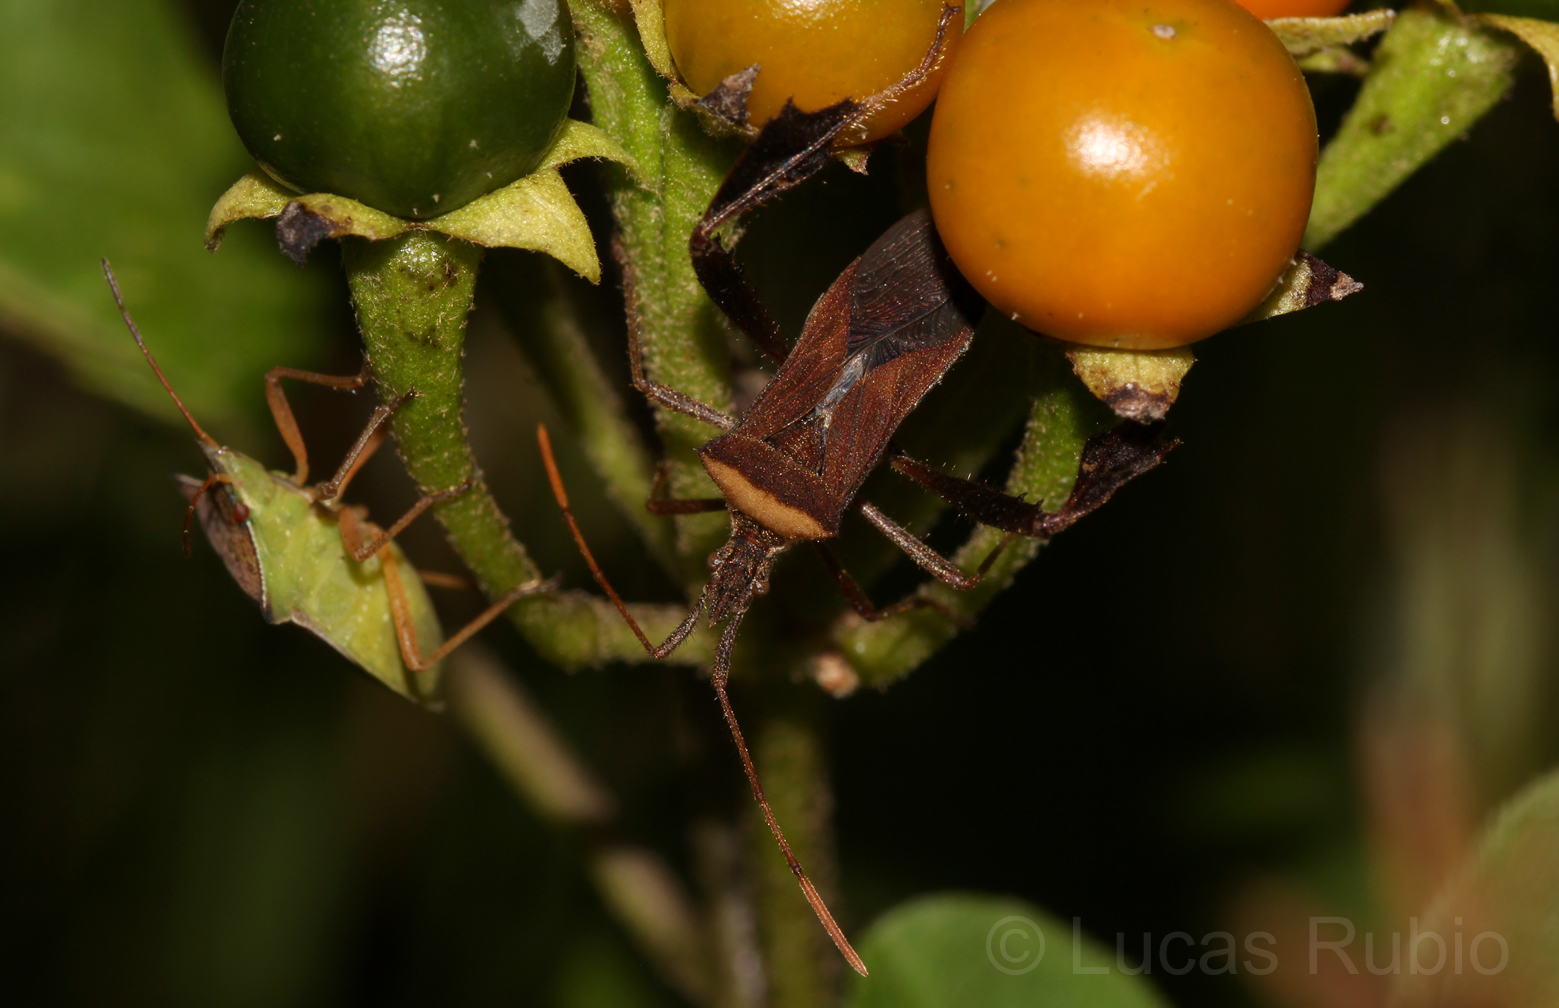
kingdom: Animalia
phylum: Arthropoda
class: Insecta
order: Hemiptera
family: Coreidae
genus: Leptoglossus
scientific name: Leptoglossus concaviusculus
